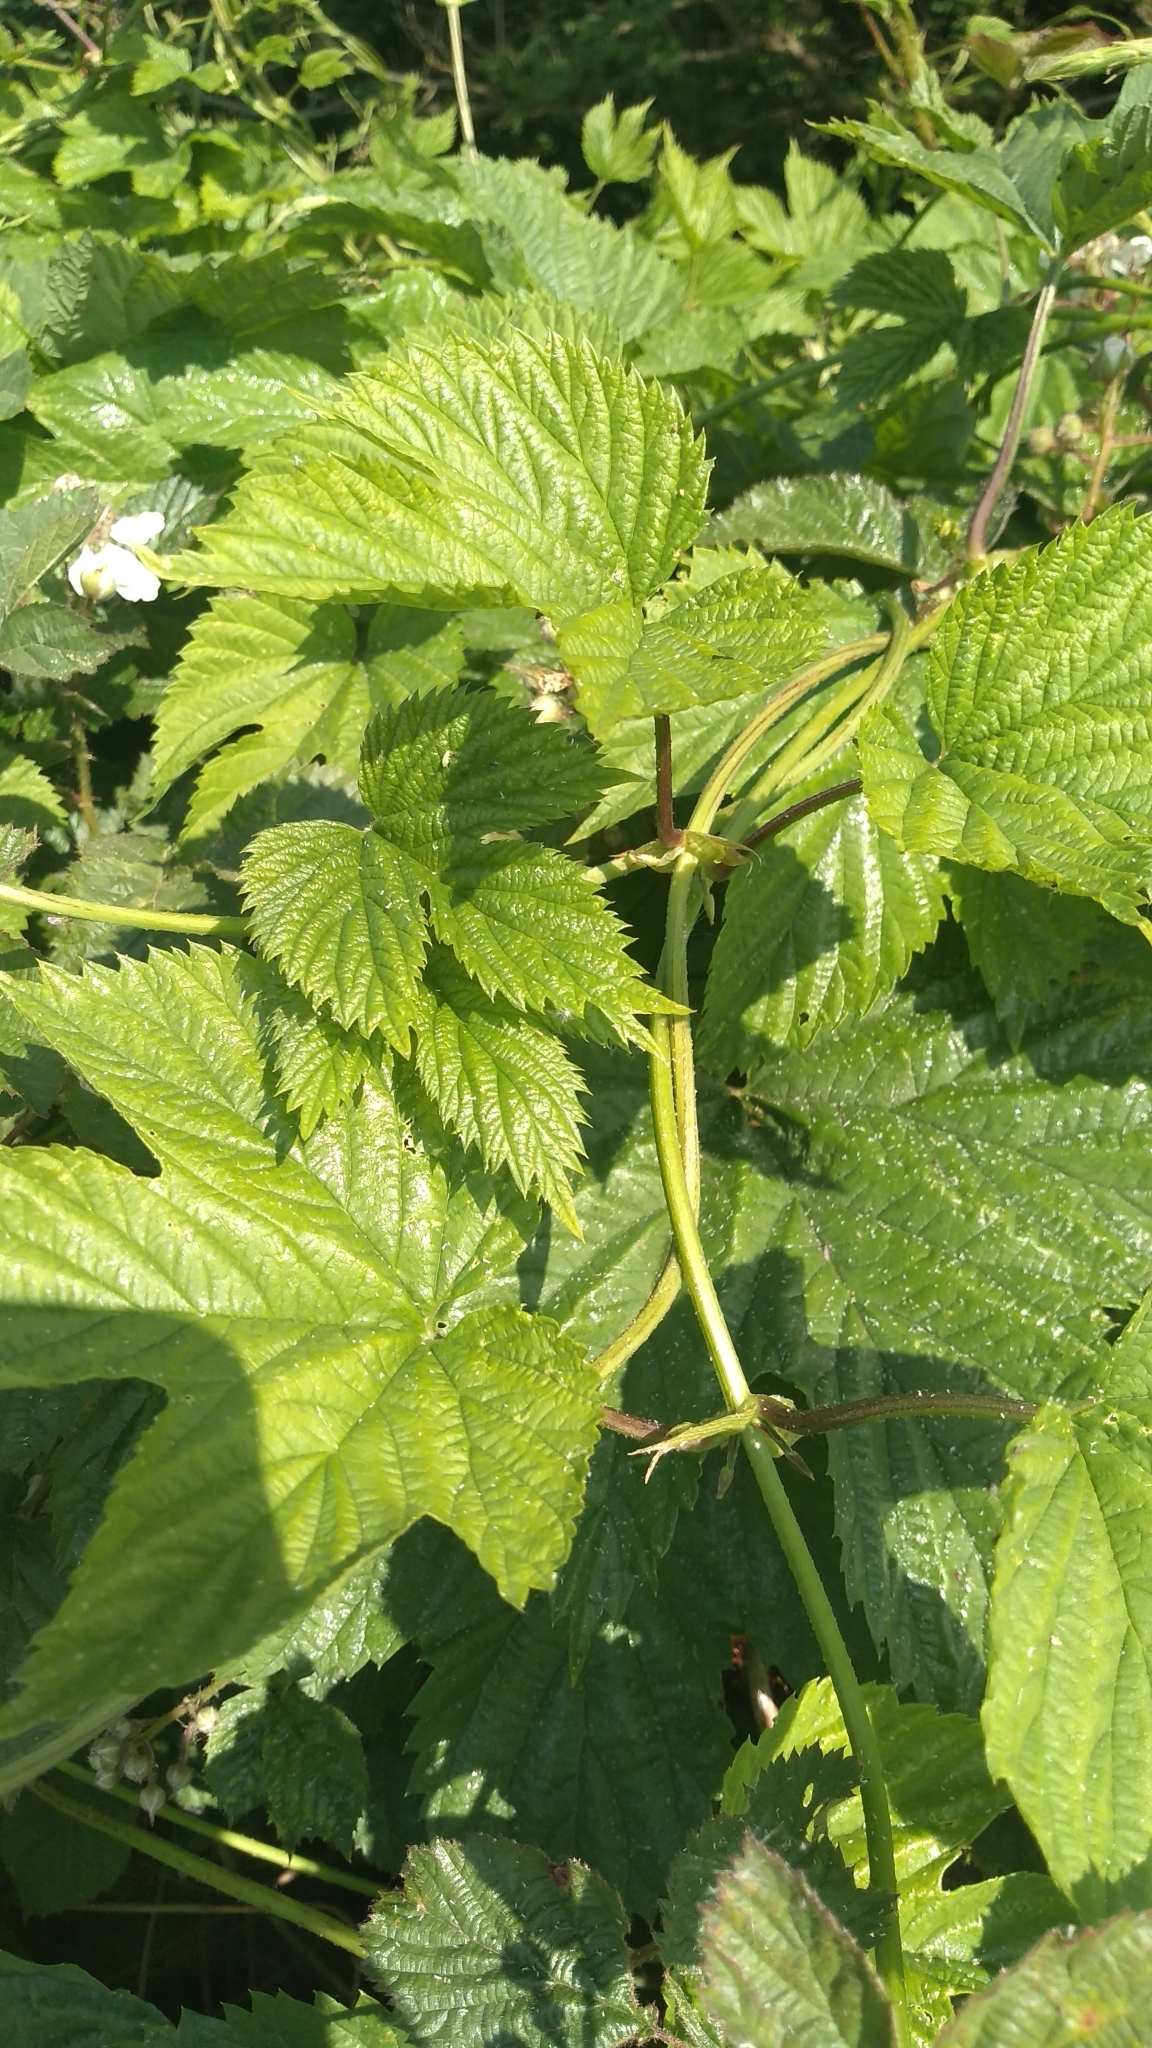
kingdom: Plantae
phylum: Tracheophyta
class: Magnoliopsida
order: Rosales
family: Cannabaceae
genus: Humulus
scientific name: Humulus lupulus
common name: Hop
